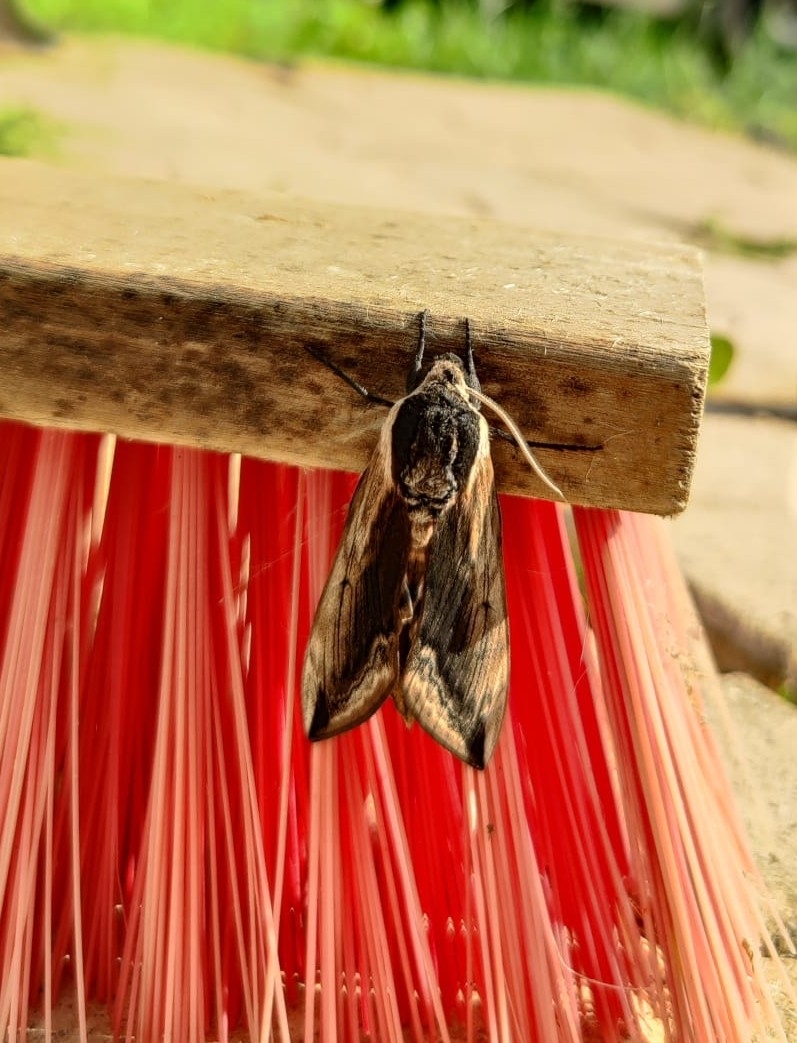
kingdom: Animalia
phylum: Arthropoda
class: Insecta
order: Lepidoptera
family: Sphingidae
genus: Sphinx
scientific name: Sphinx ligustri
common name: Privet hawk-moth
